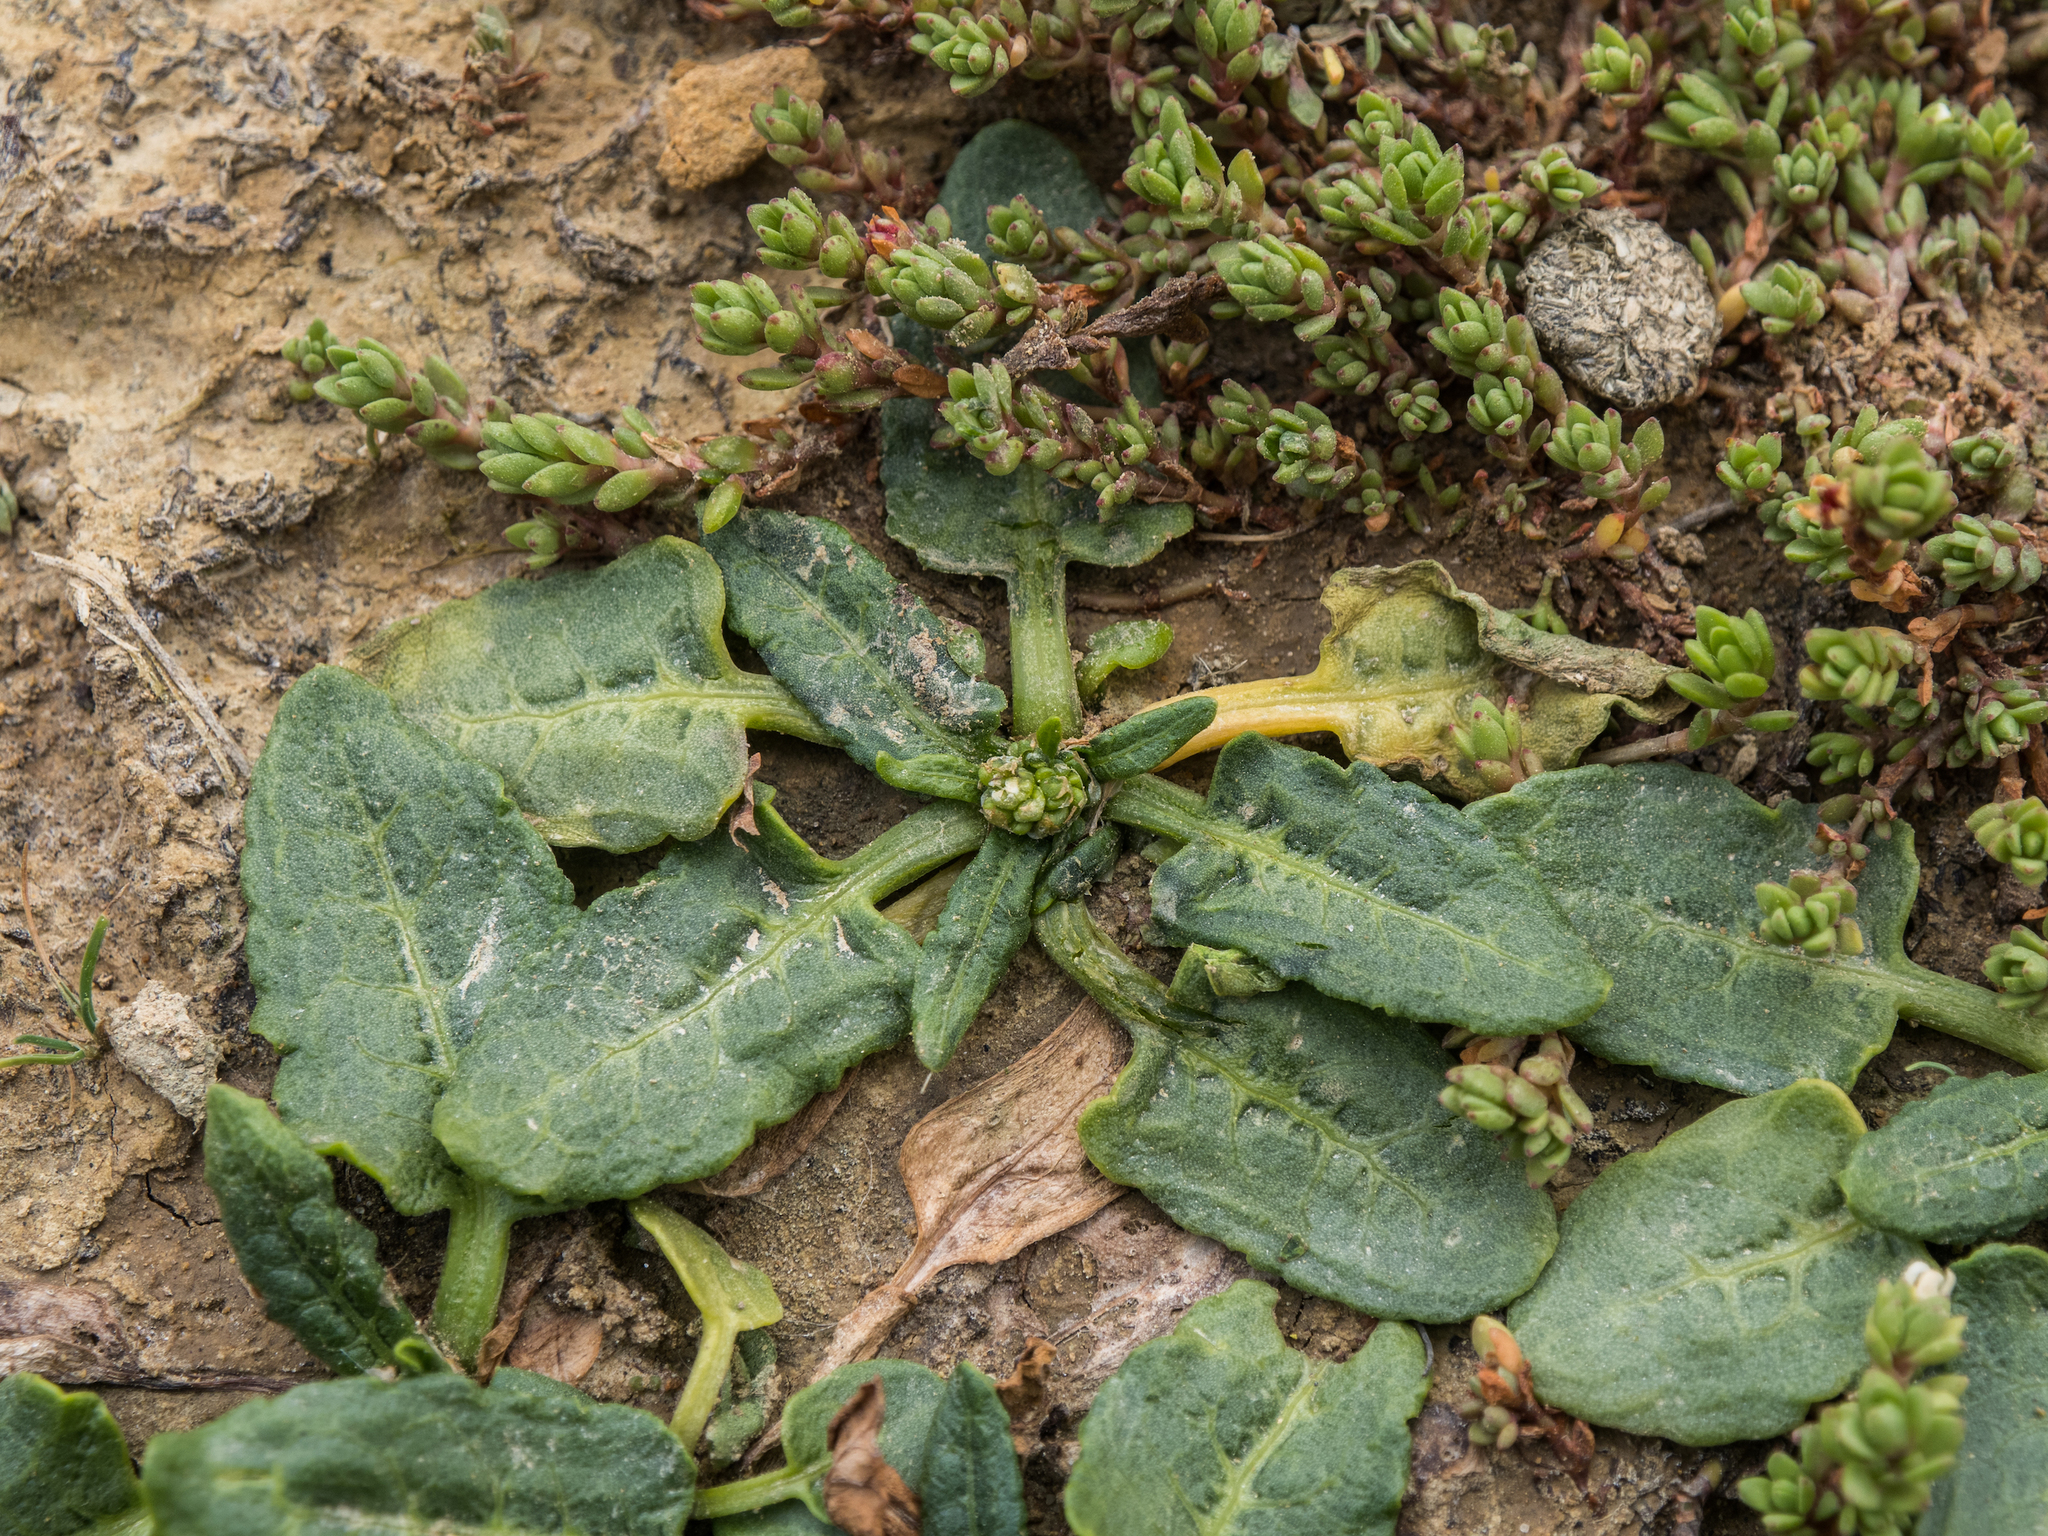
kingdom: Plantae
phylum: Tracheophyta
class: Magnoliopsida
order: Caryophyllales
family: Polygonaceae
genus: Rumex
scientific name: Rumex neglectus
